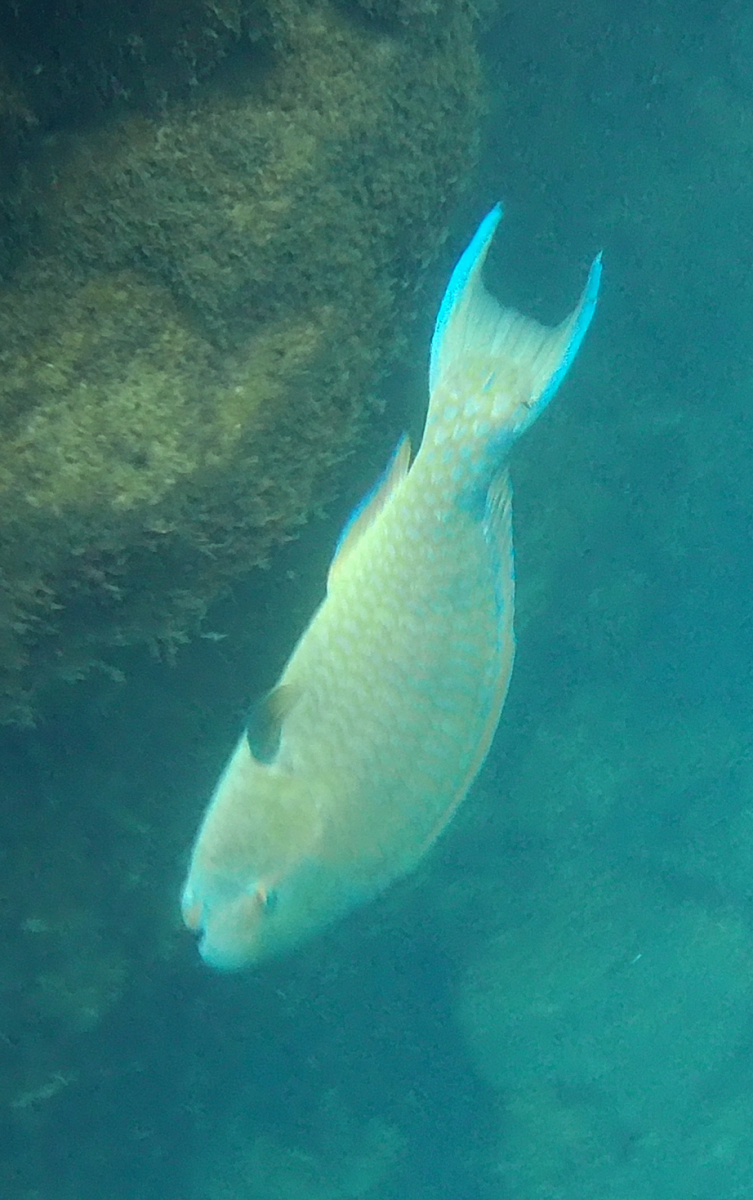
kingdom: Animalia
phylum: Chordata
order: Perciformes
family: Scaridae
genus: Scarus
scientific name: Scarus ghobban
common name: Blue-barred parrotfish
